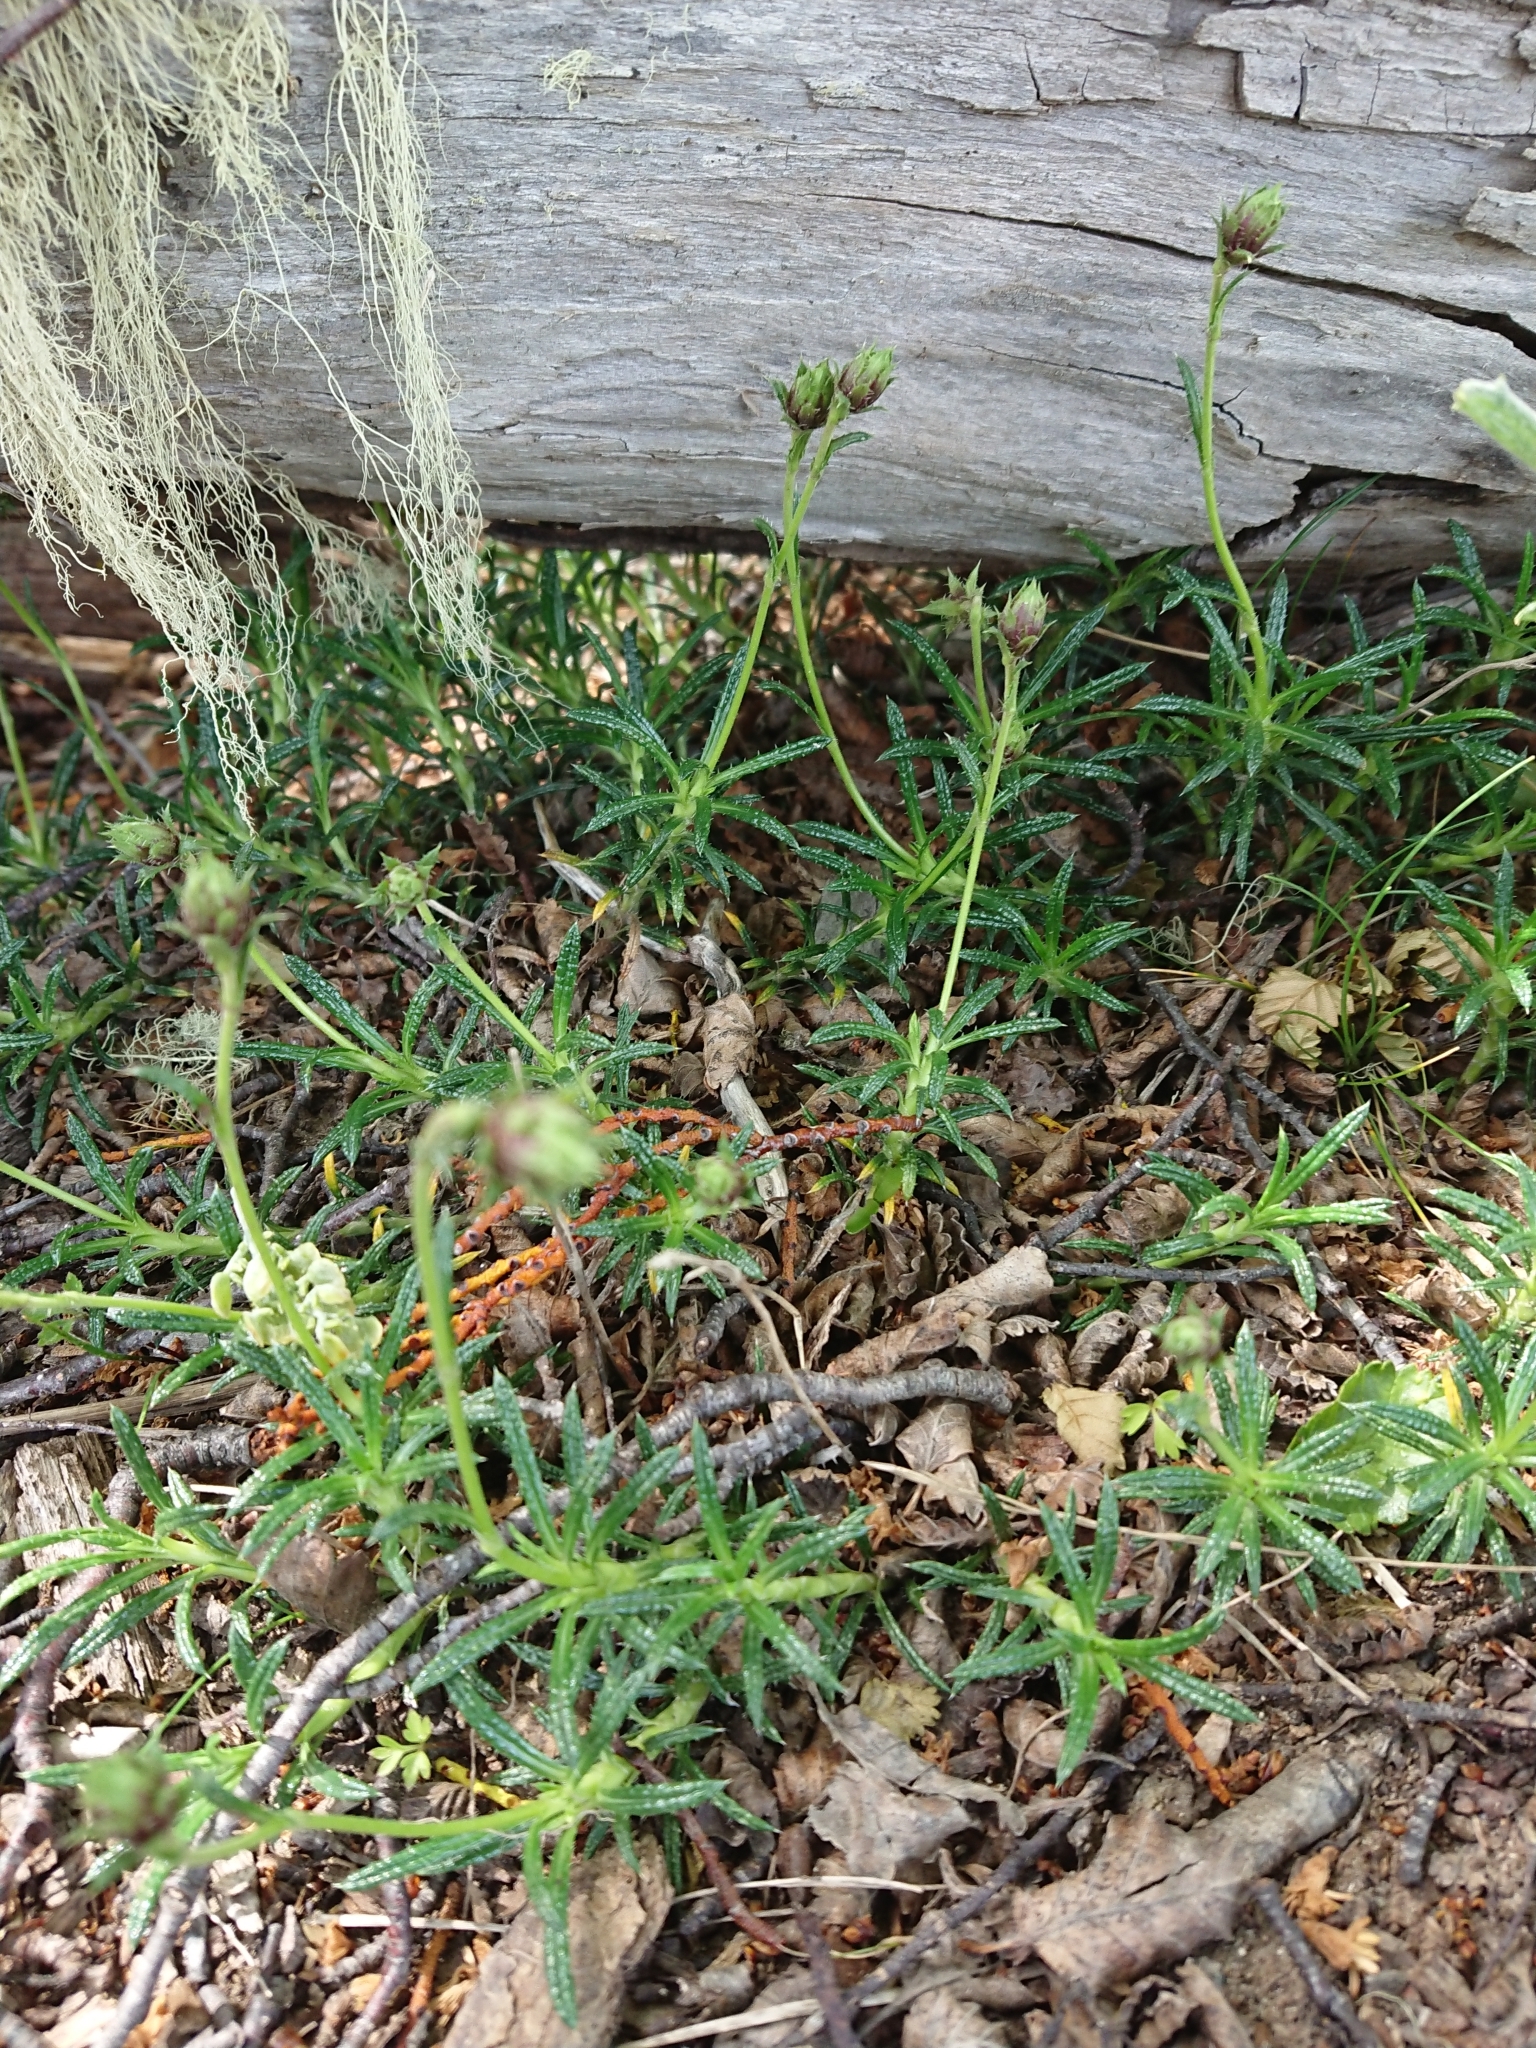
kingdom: Plantae
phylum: Tracheophyta
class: Magnoliopsida
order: Asterales
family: Asteraceae
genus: Perezia
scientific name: Perezia recurvata
